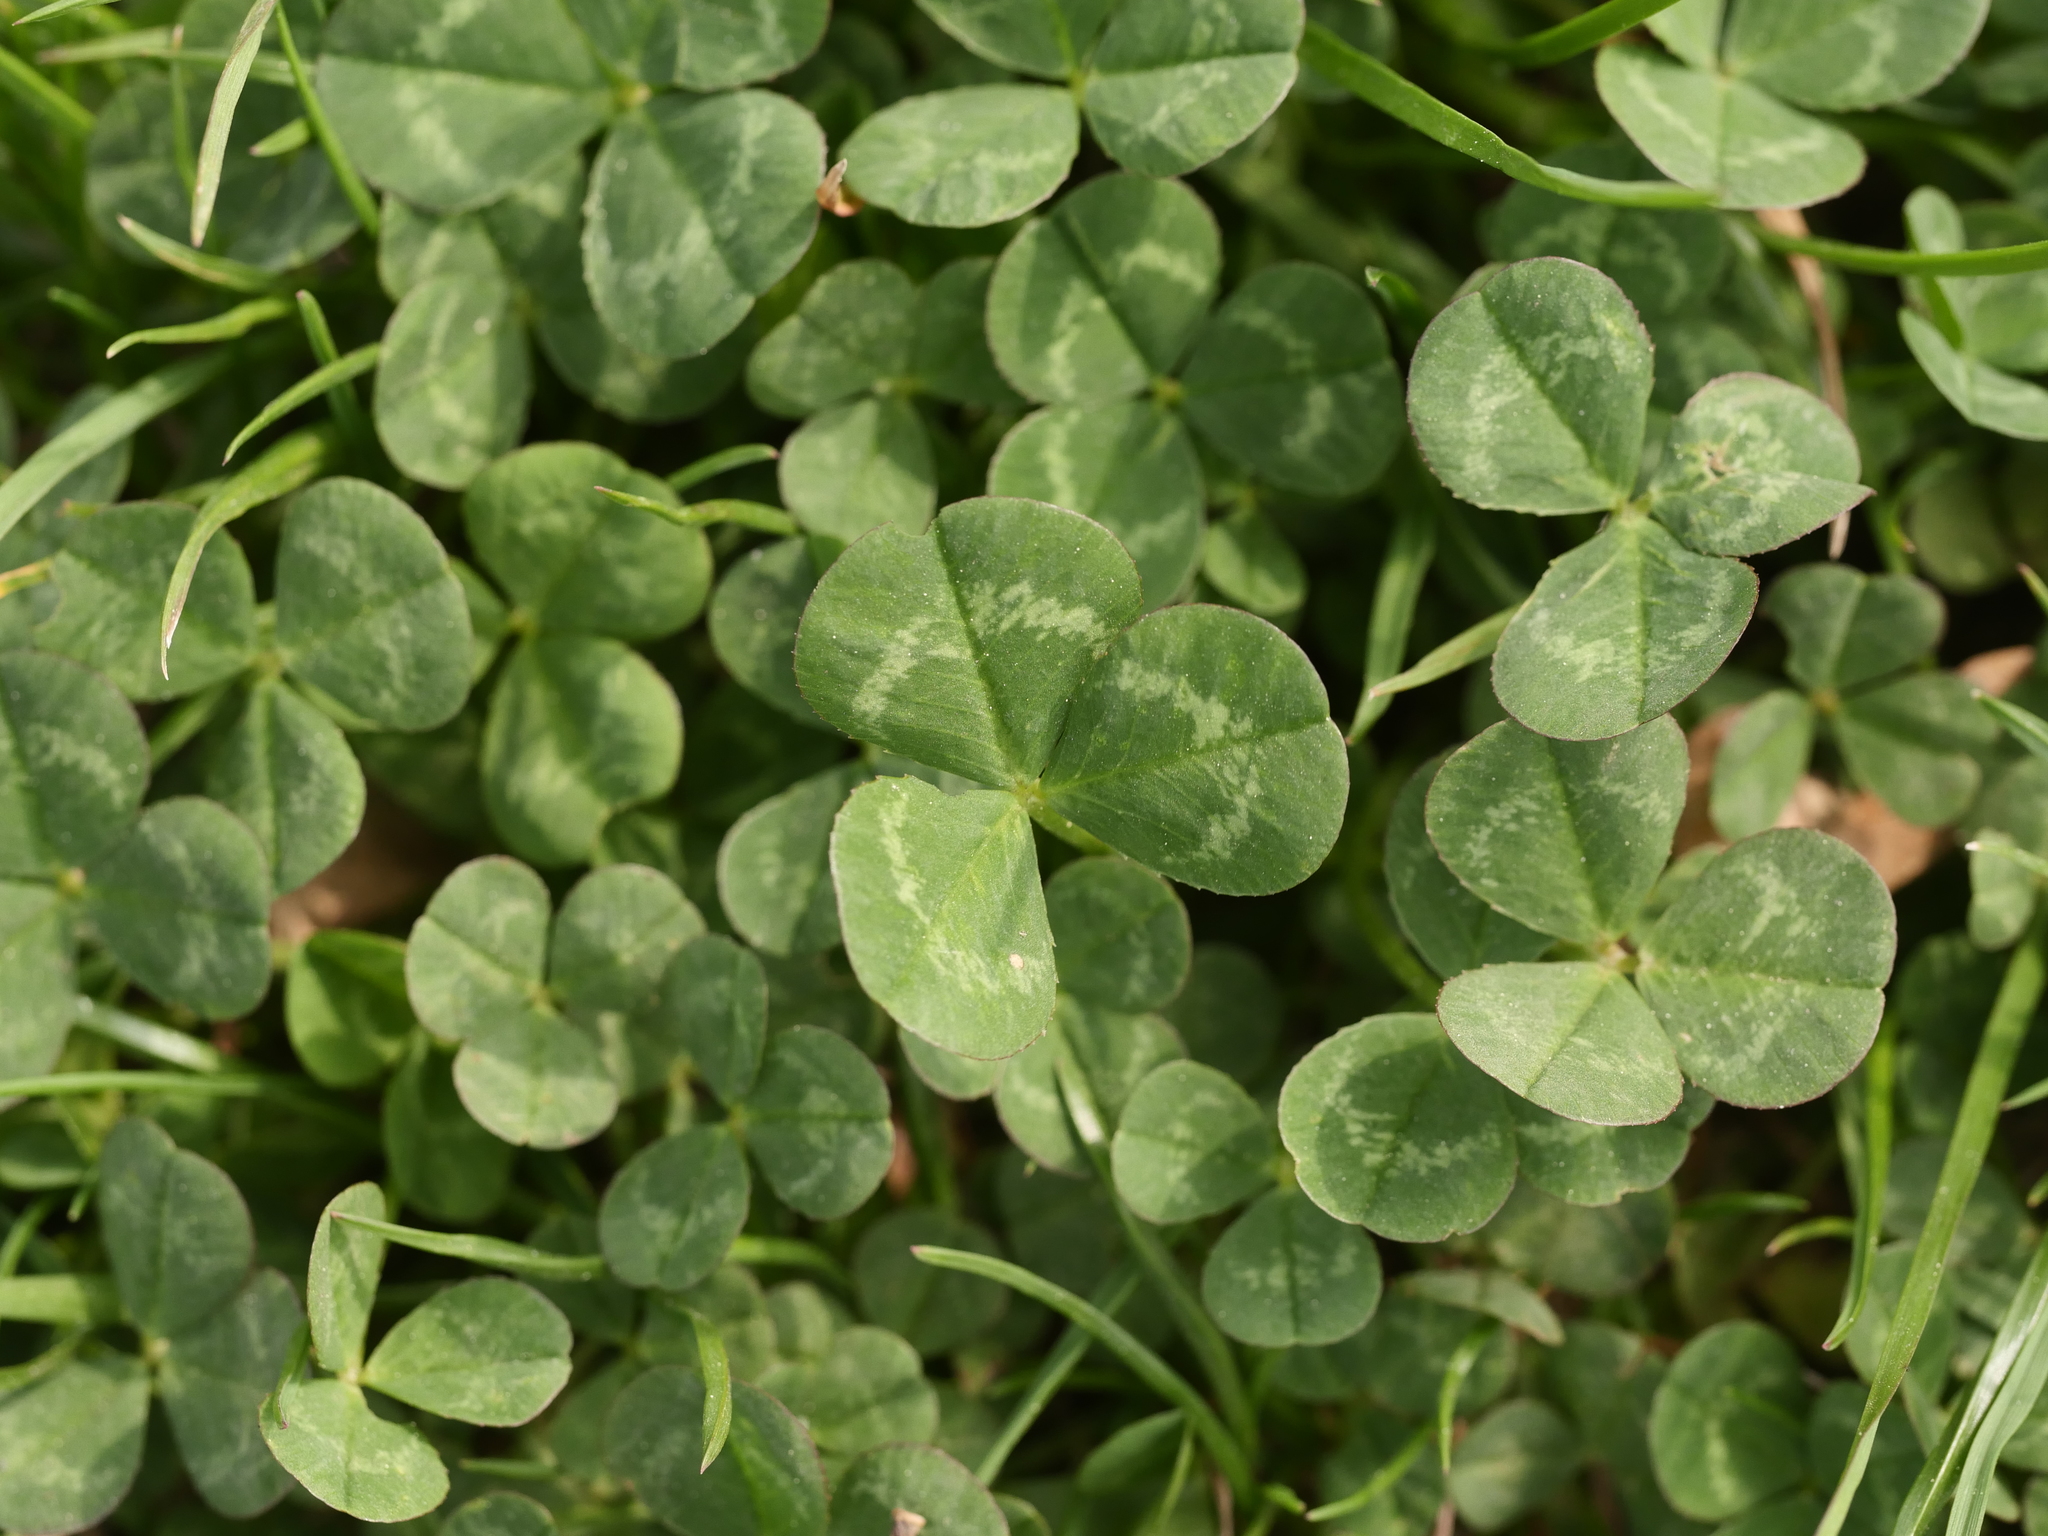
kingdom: Plantae
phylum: Tracheophyta
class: Magnoliopsida
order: Fabales
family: Fabaceae
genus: Trifolium
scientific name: Trifolium repens
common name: White clover
